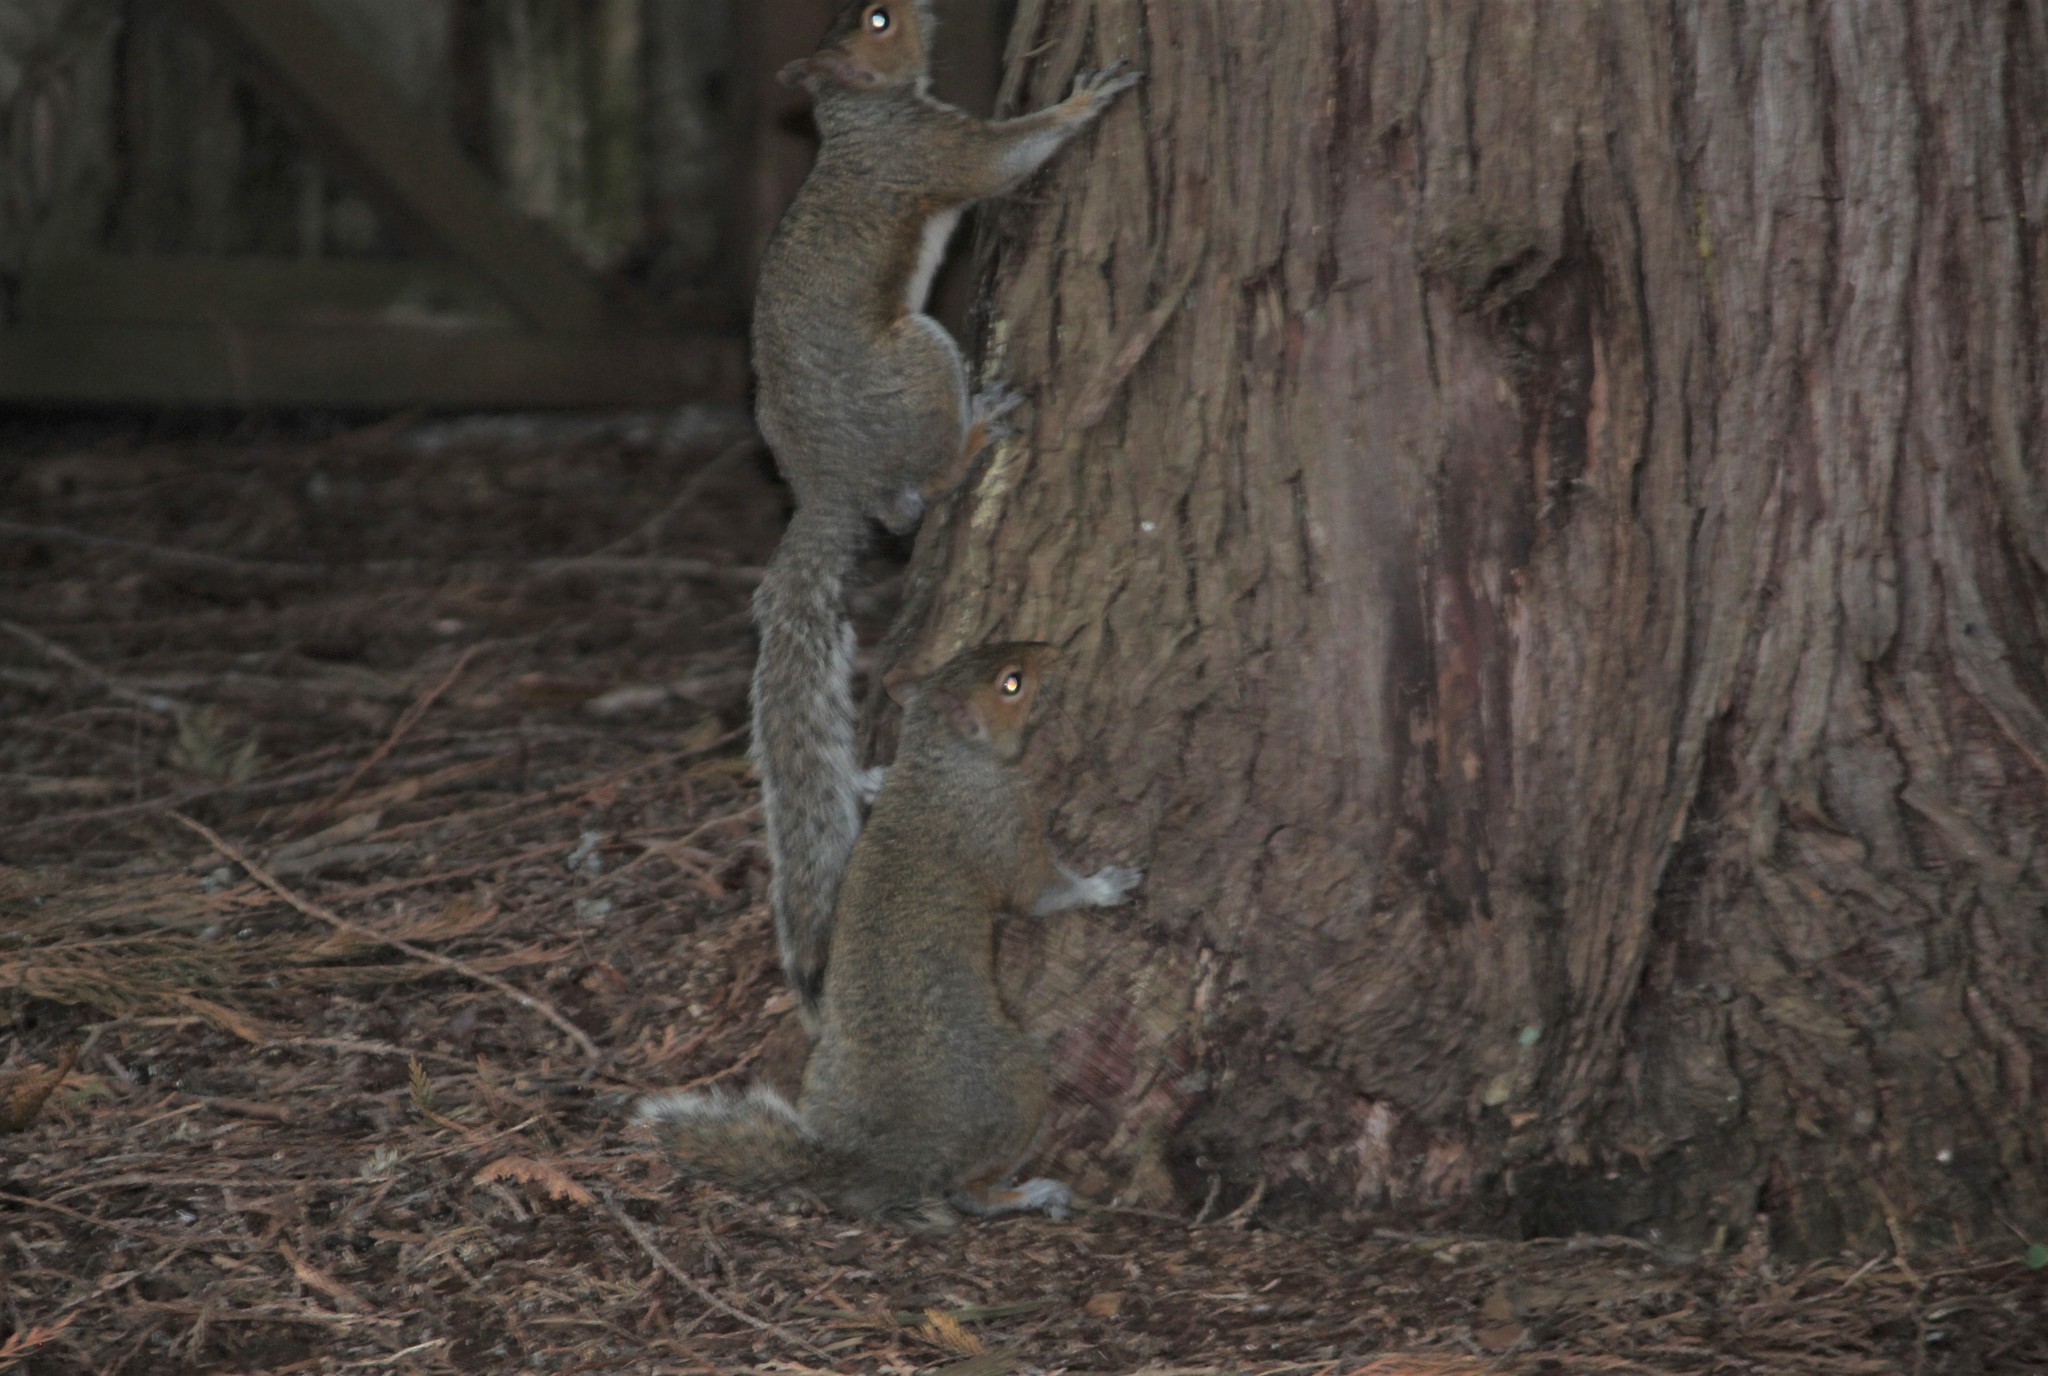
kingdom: Animalia
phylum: Chordata
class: Mammalia
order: Rodentia
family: Sciuridae
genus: Sciurus
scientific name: Sciurus carolinensis
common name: Eastern gray squirrel
